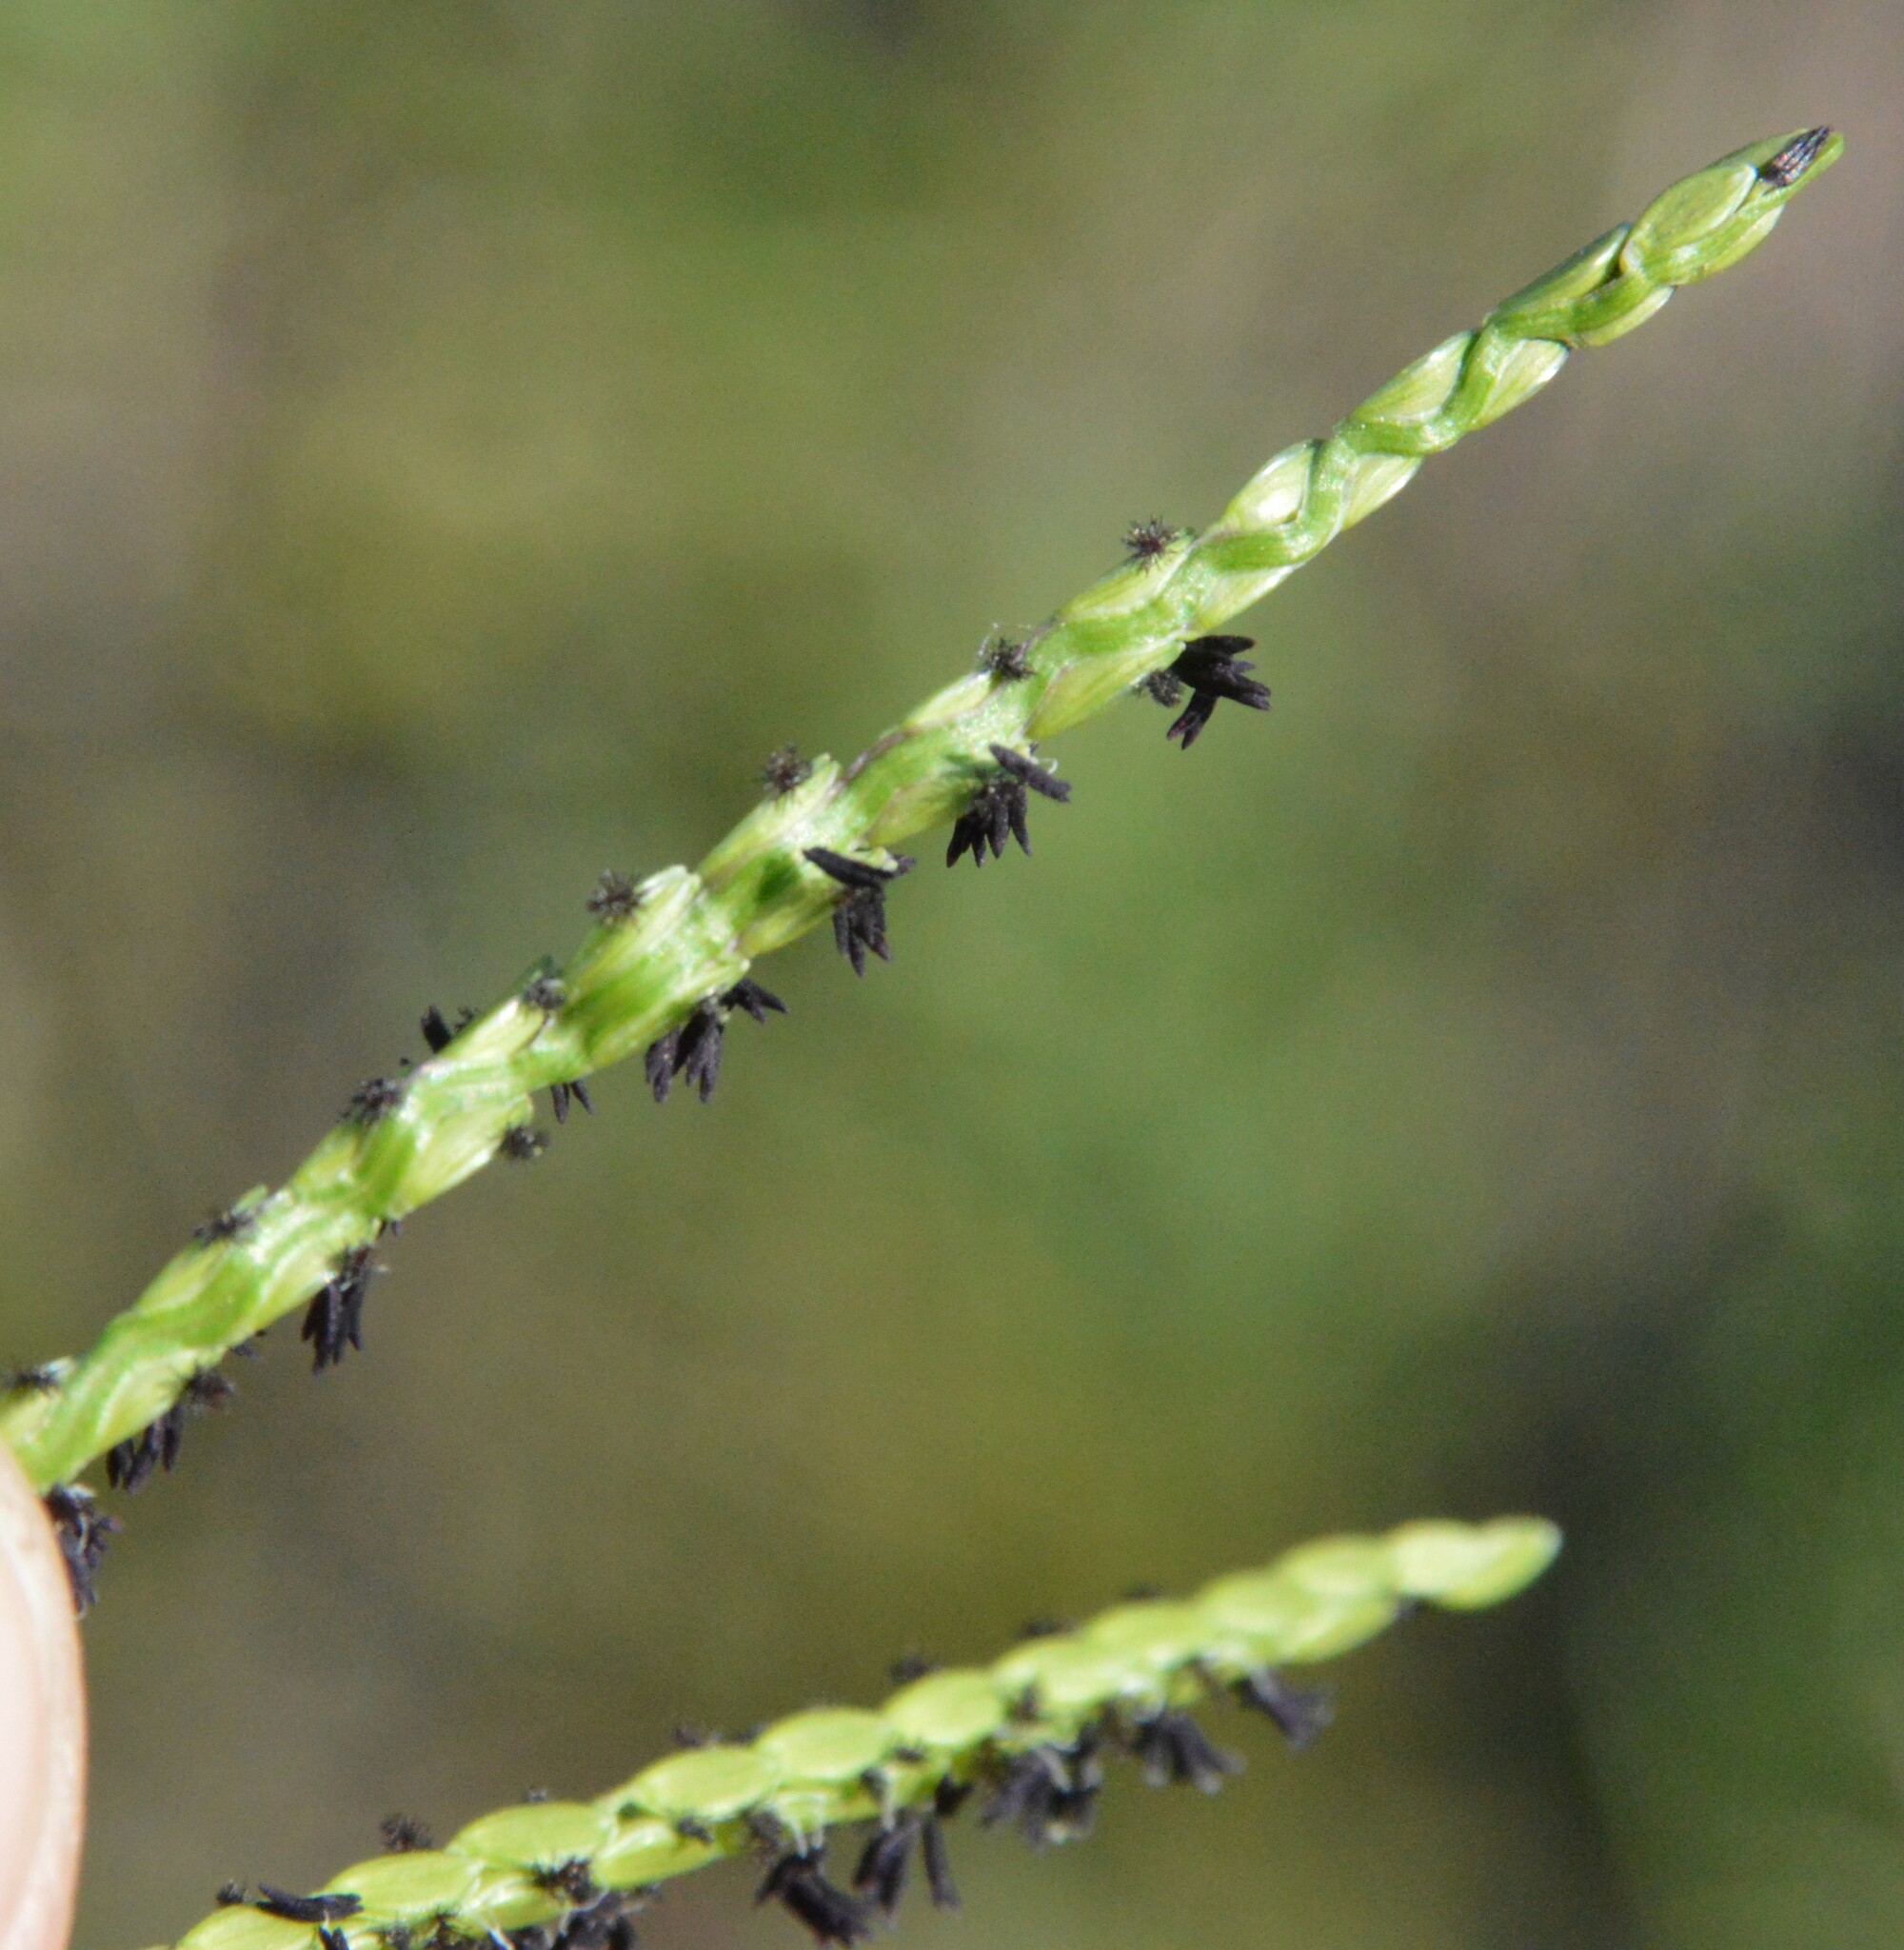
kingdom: Plantae
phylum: Tracheophyta
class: Liliopsida
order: Poales
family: Poaceae
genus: Paspalum
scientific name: Paspalum distichum
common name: Knotgrass
